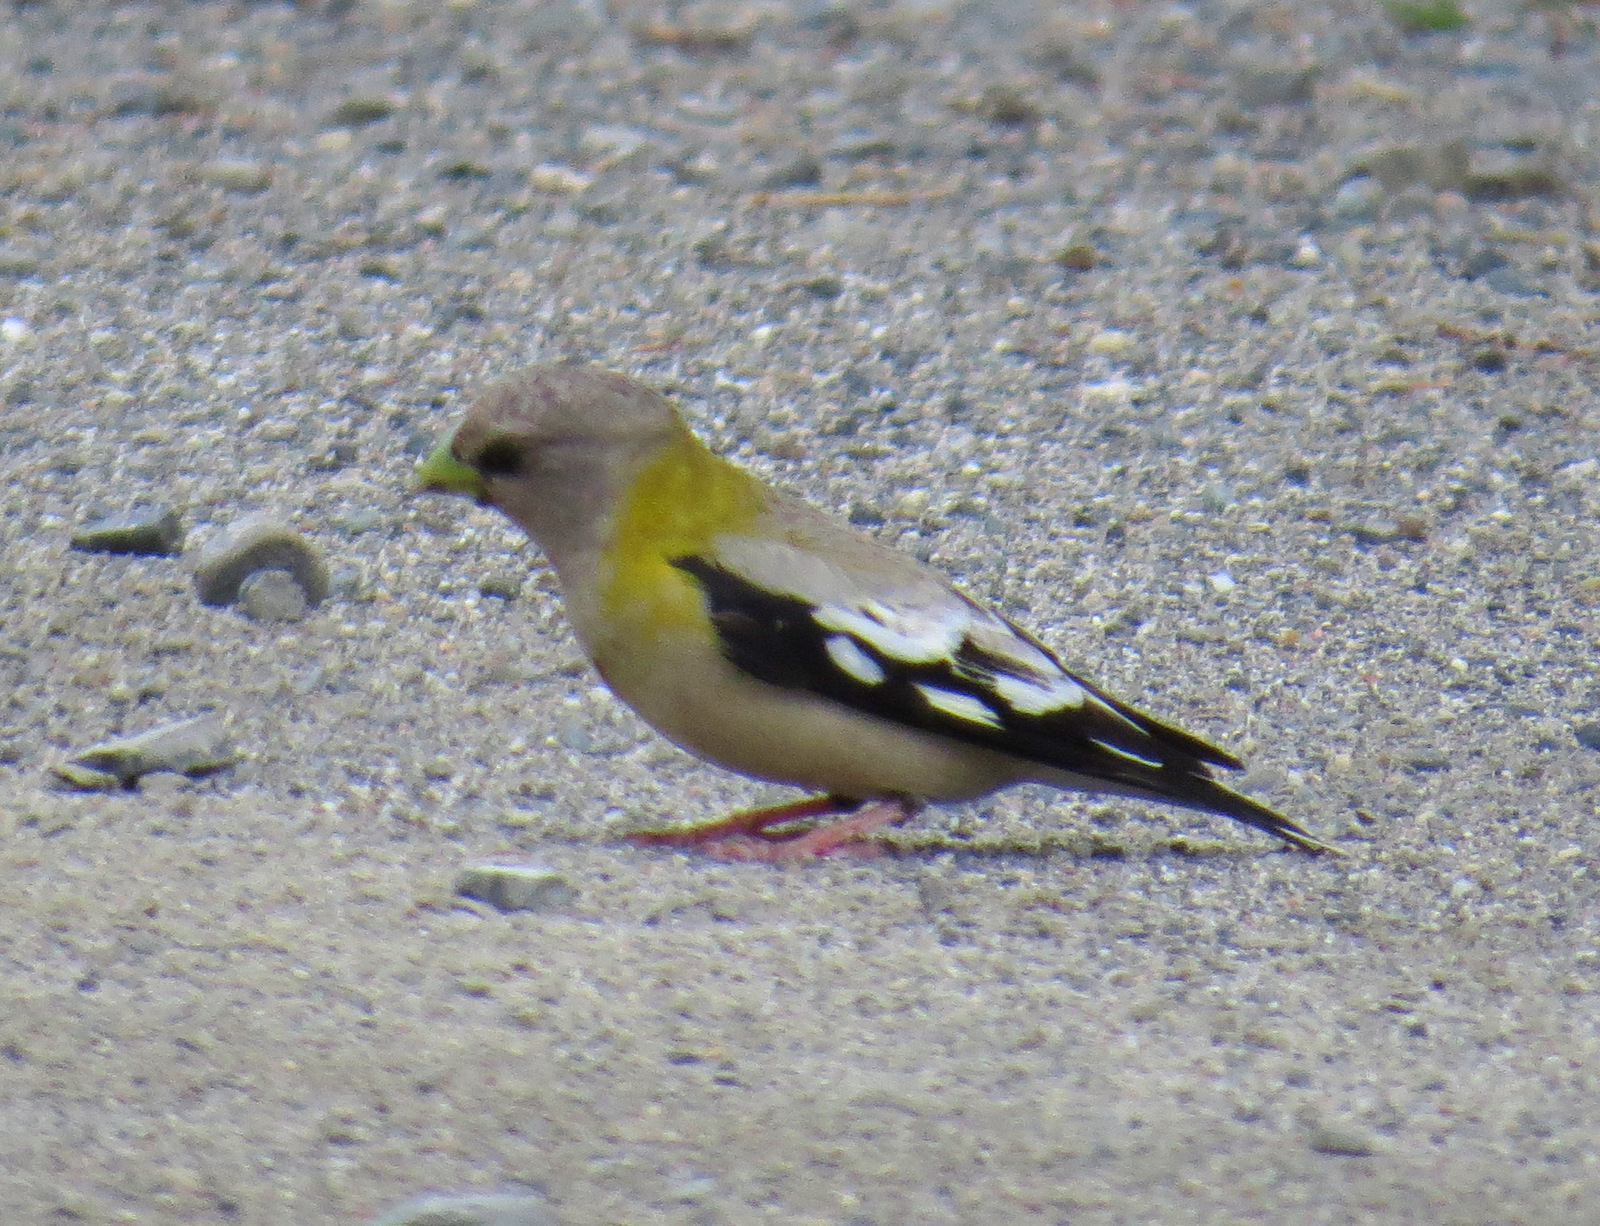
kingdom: Animalia
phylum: Chordata
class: Aves
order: Passeriformes
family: Fringillidae
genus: Hesperiphona
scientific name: Hesperiphona vespertina
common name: Evening grosbeak
